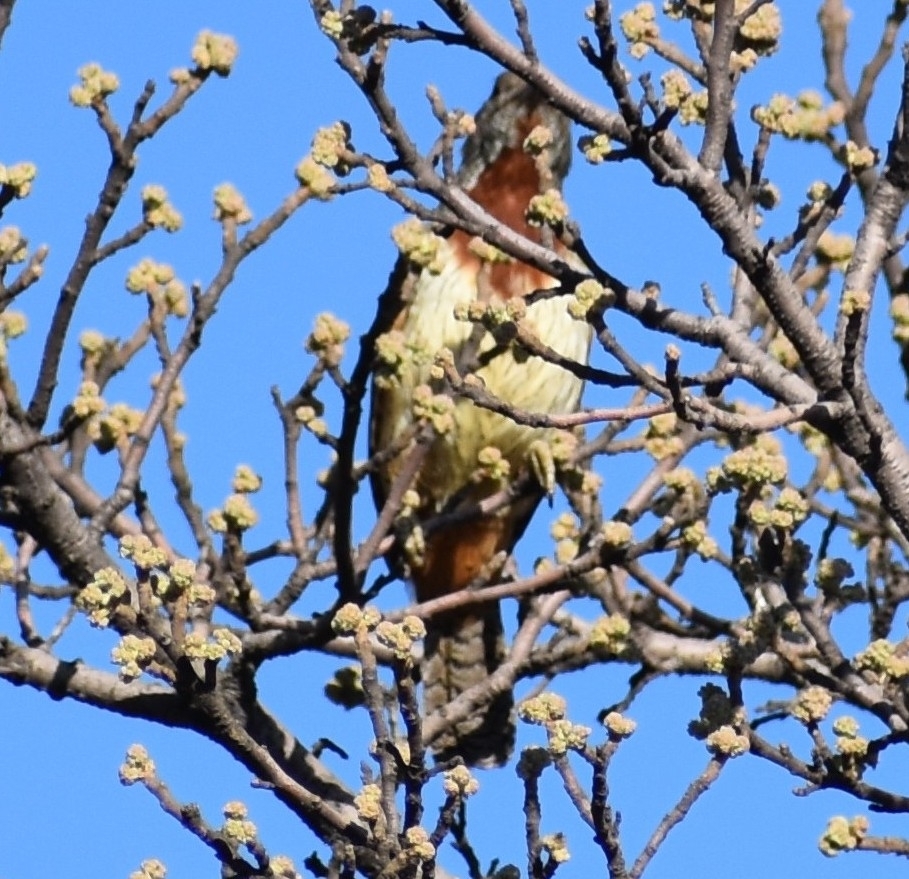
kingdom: Animalia
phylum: Chordata
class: Aves
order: Piciformes
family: Picidae
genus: Jynx
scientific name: Jynx ruficollis
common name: Red-throated wryneck
